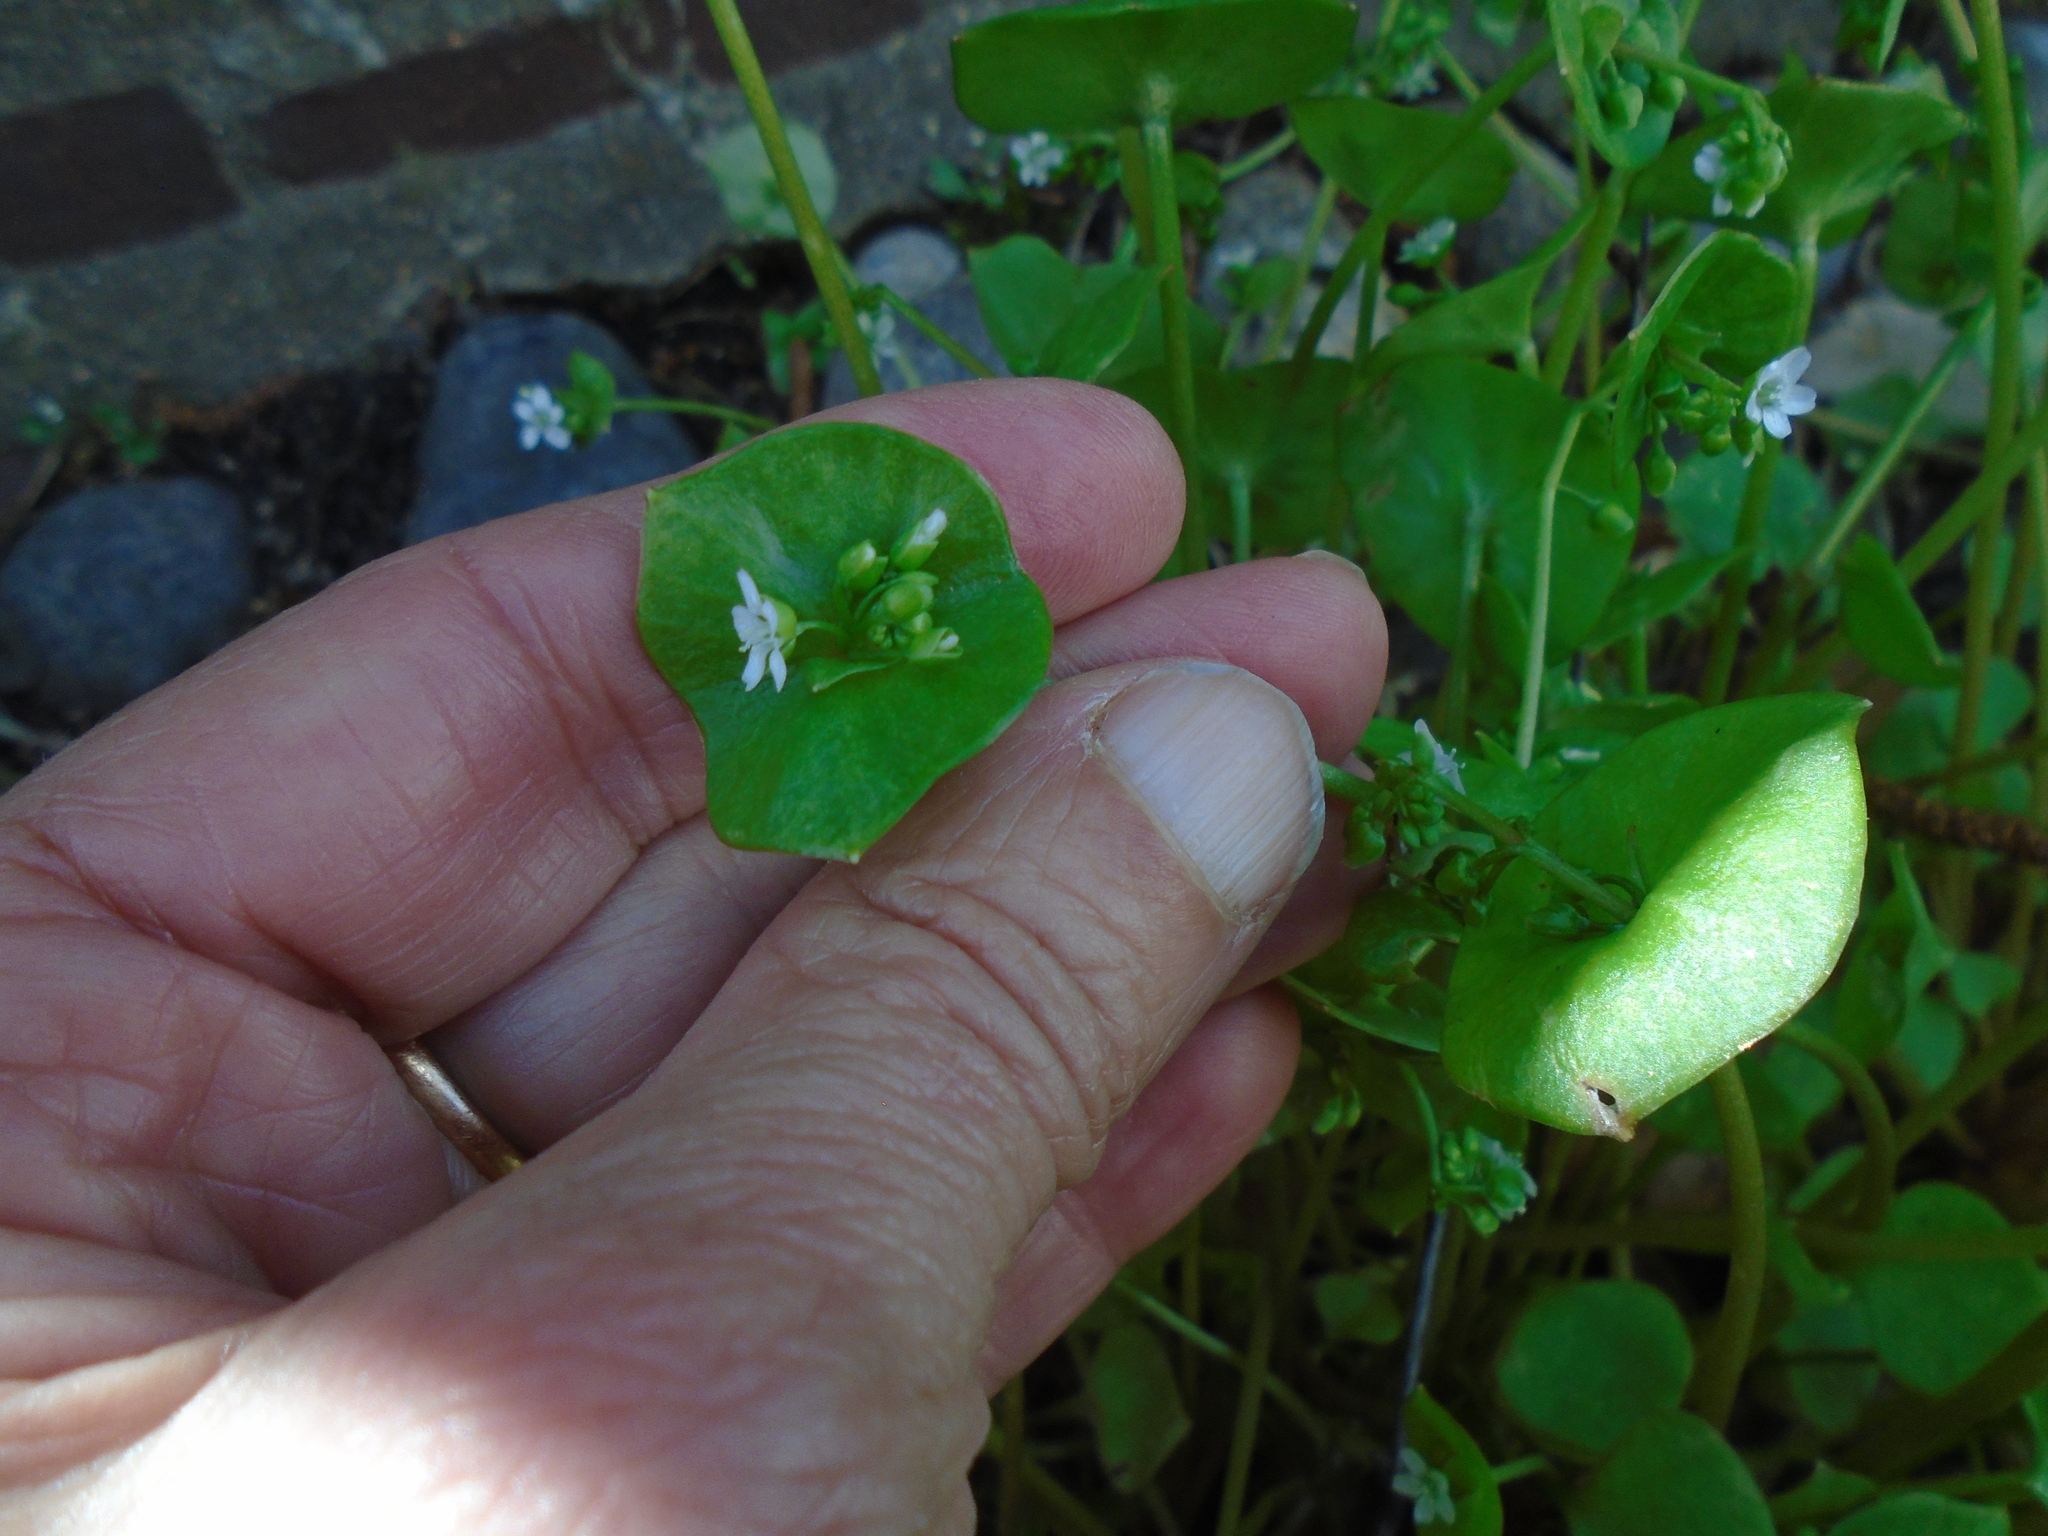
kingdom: Plantae
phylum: Tracheophyta
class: Magnoliopsida
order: Caryophyllales
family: Montiaceae
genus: Claytonia
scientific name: Claytonia perfoliata
